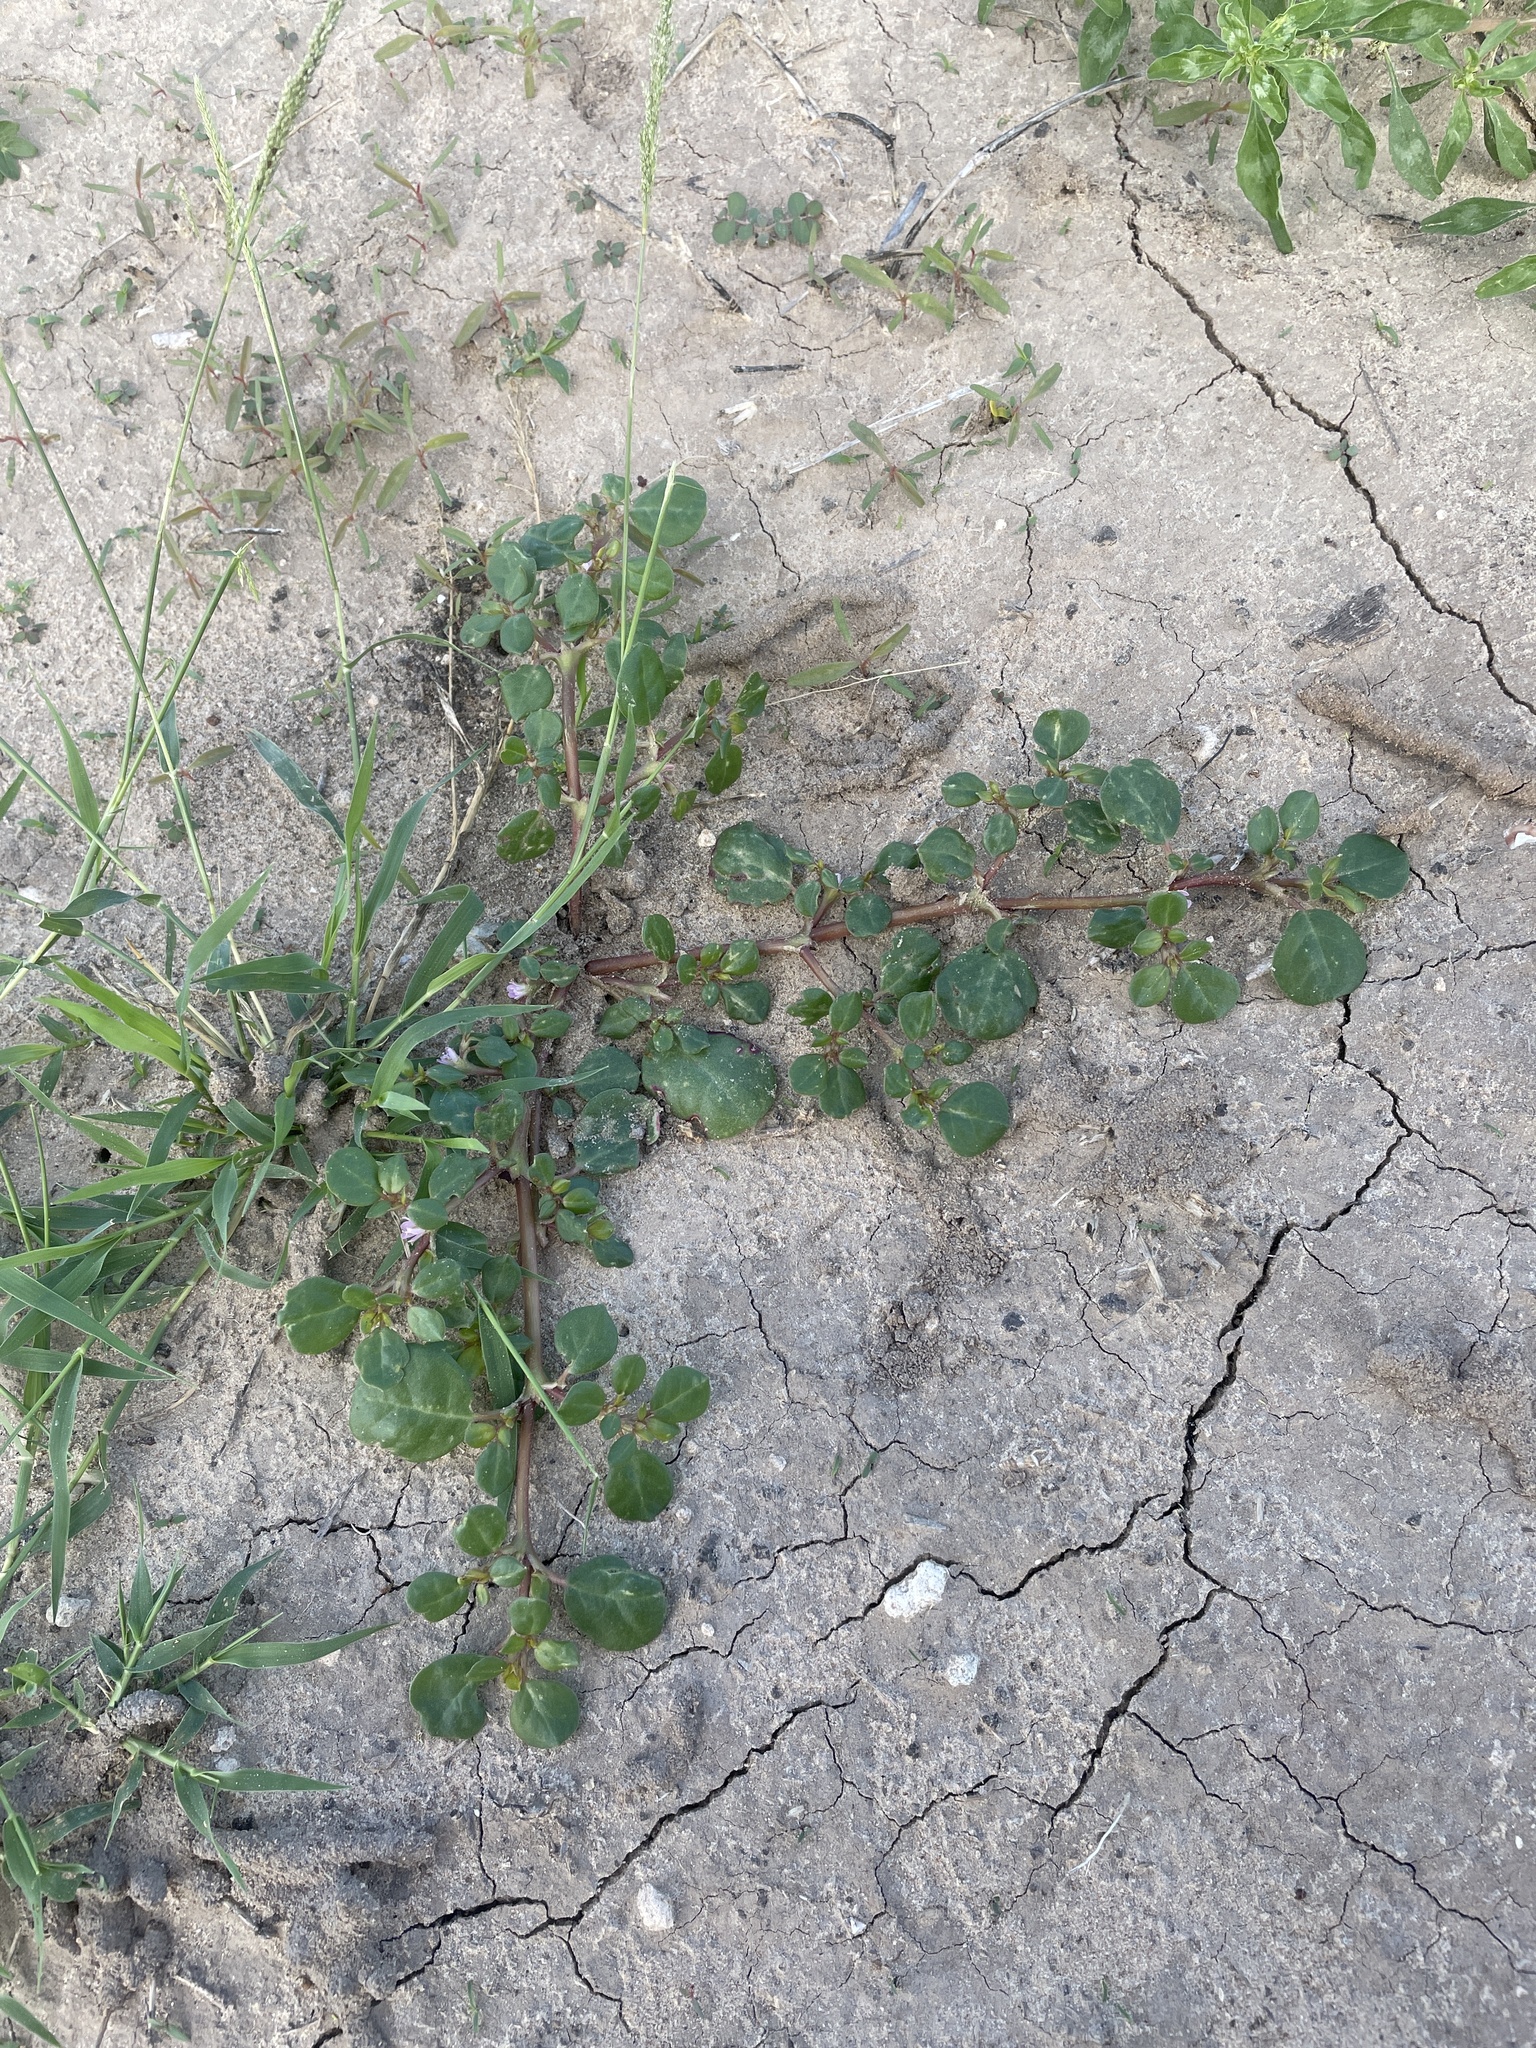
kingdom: Plantae
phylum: Tracheophyta
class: Magnoliopsida
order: Caryophyllales
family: Aizoaceae
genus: Trianthema
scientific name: Trianthema portulacastrum
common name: Desert horsepurslane
